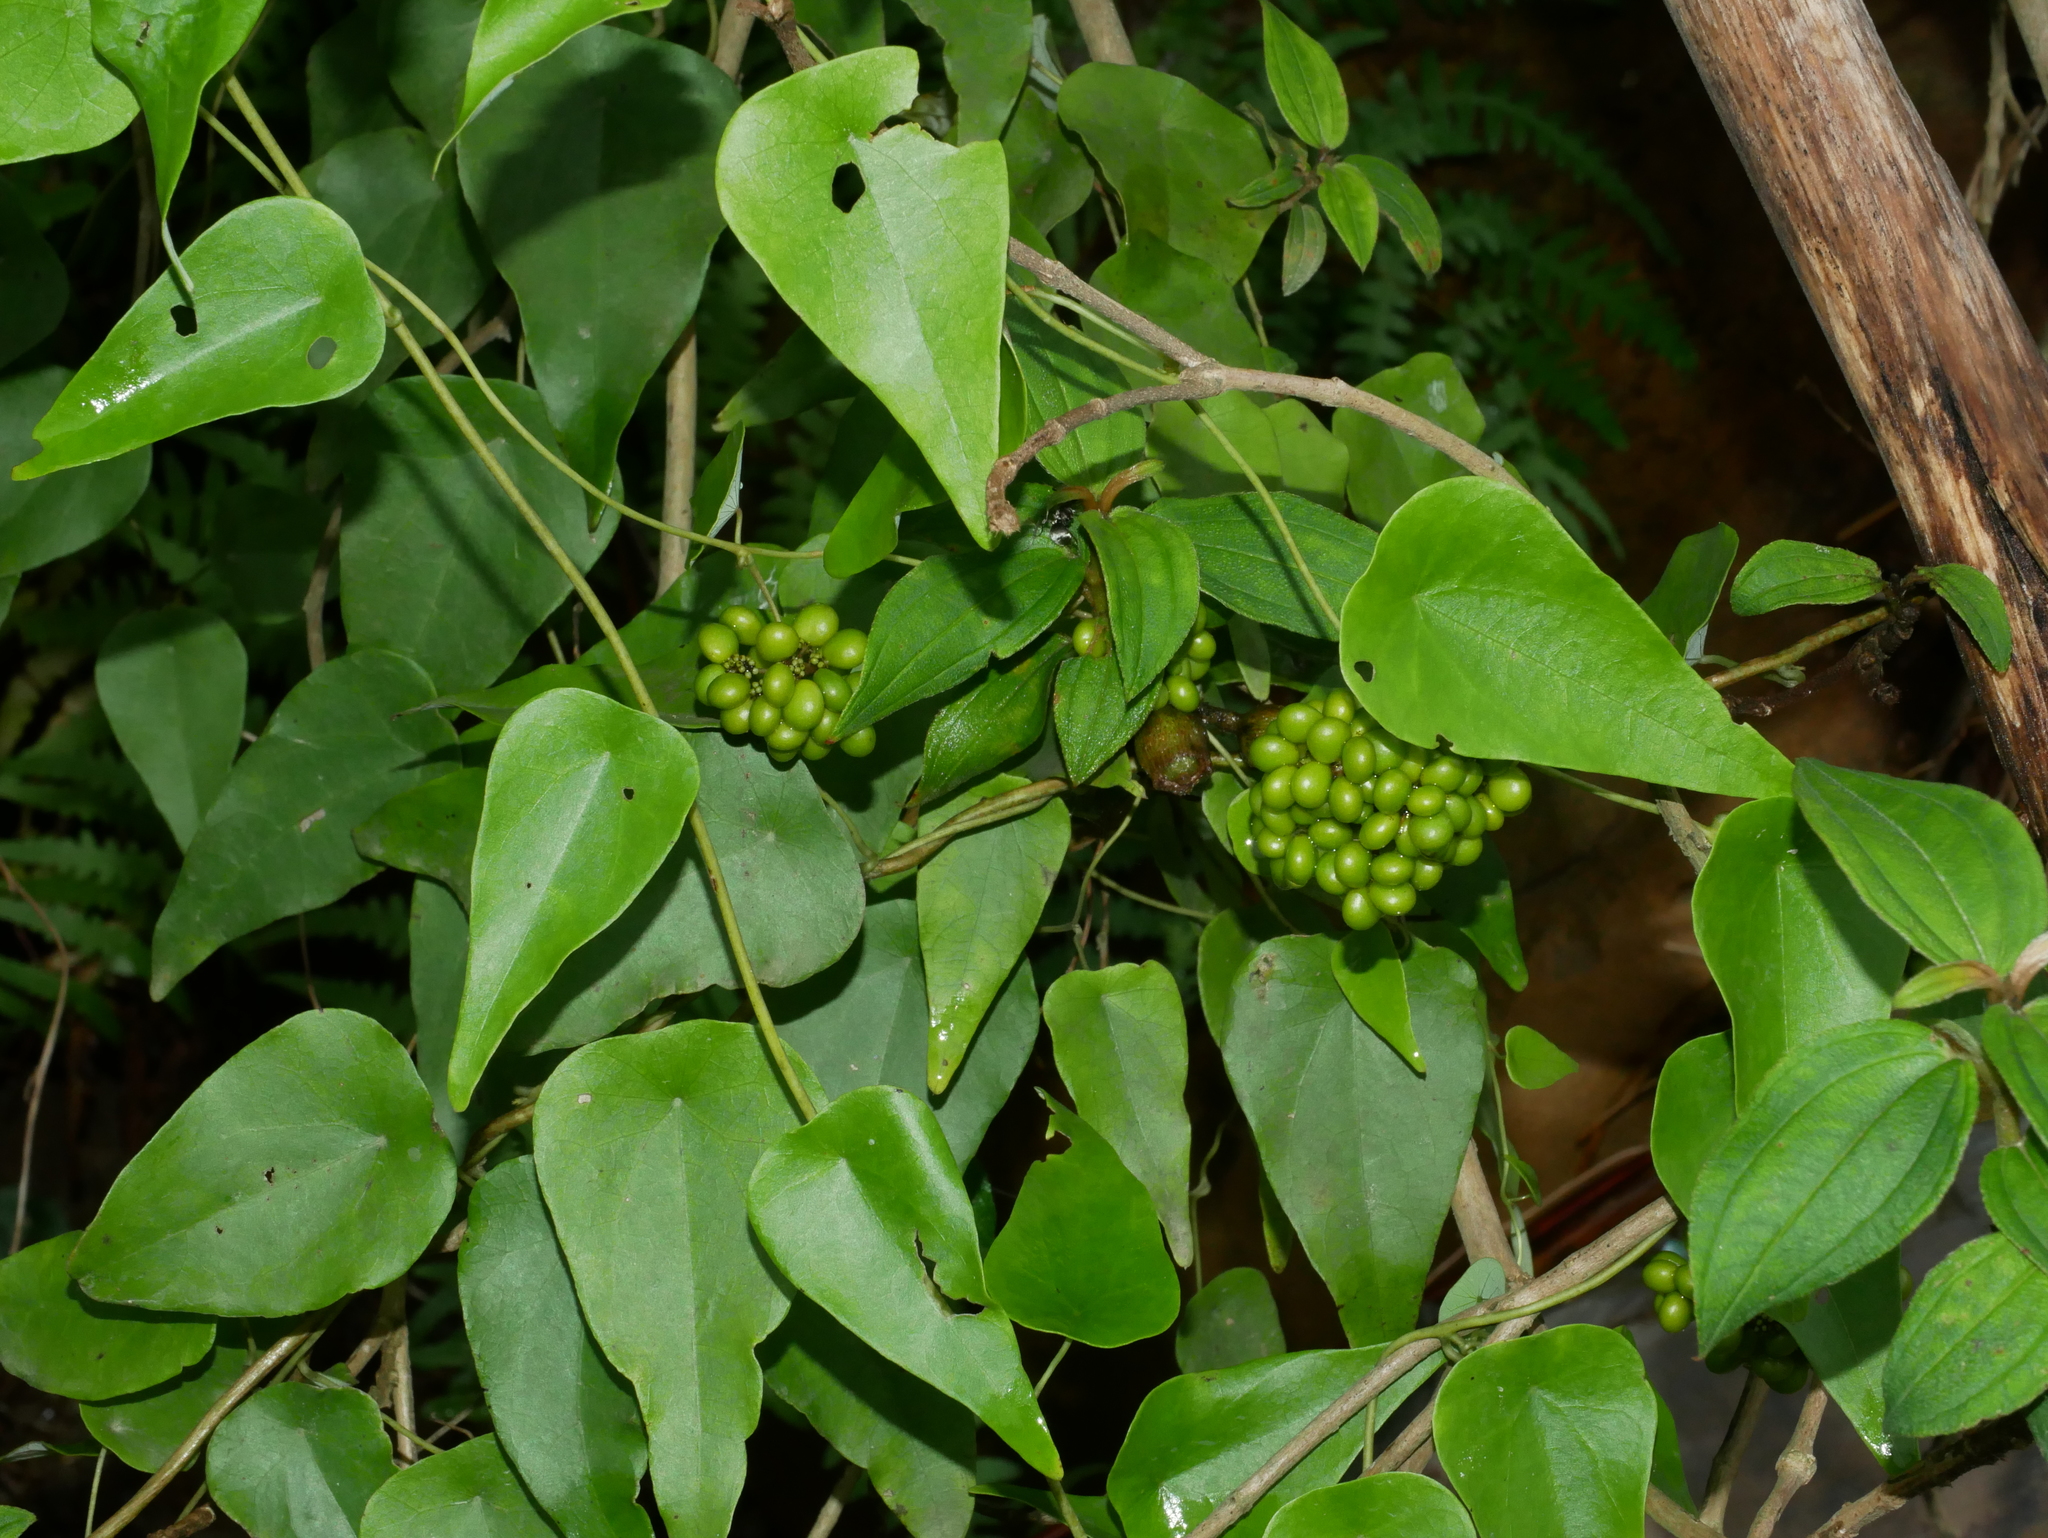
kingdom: Plantae
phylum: Tracheophyta
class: Magnoliopsida
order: Ranunculales
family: Menispermaceae
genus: Stephania
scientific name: Stephania japonica
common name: Snake vine
